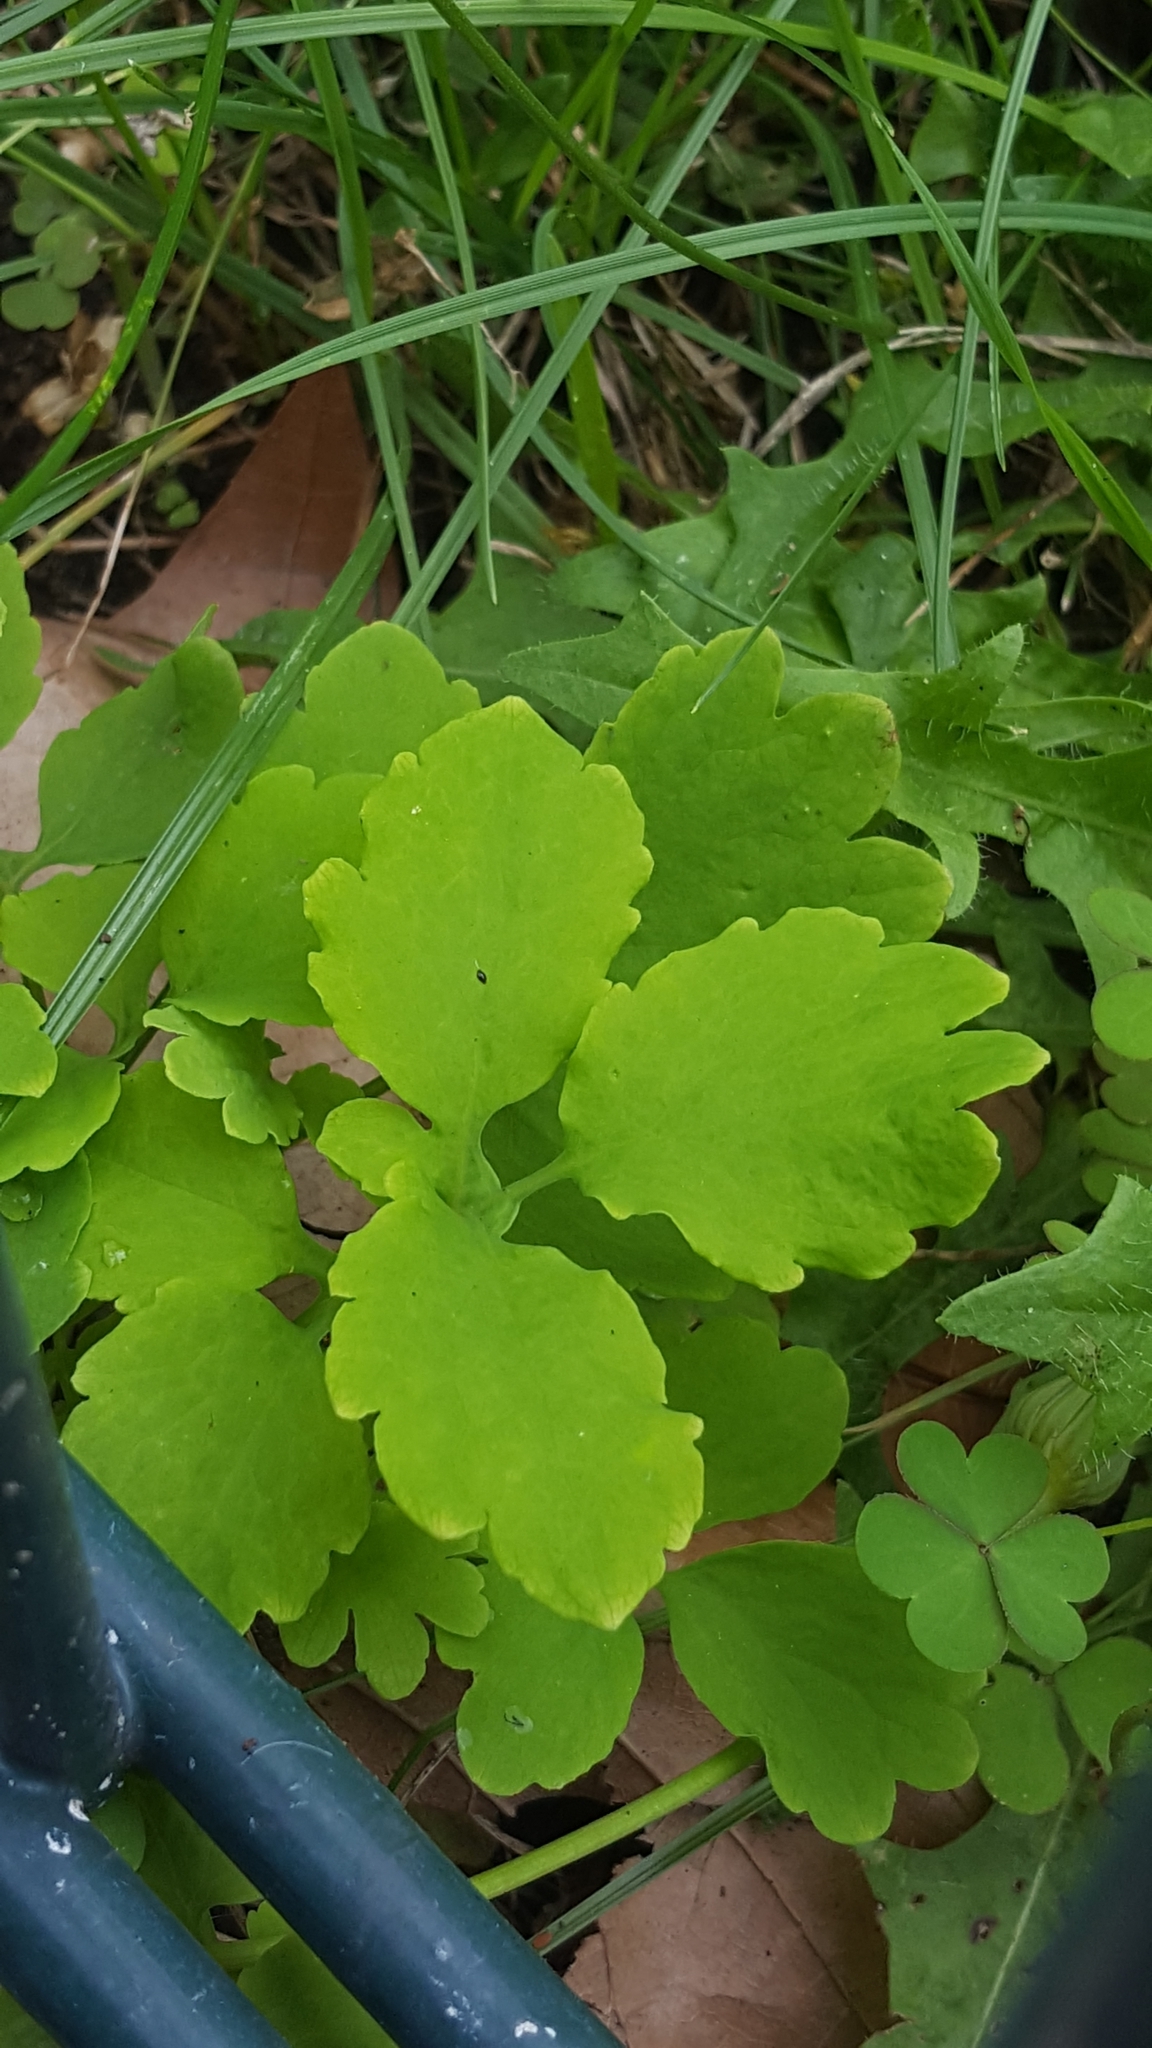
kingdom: Plantae
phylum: Tracheophyta
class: Magnoliopsida
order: Ranunculales
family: Papaveraceae
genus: Chelidonium
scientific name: Chelidonium majus
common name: Greater celandine
